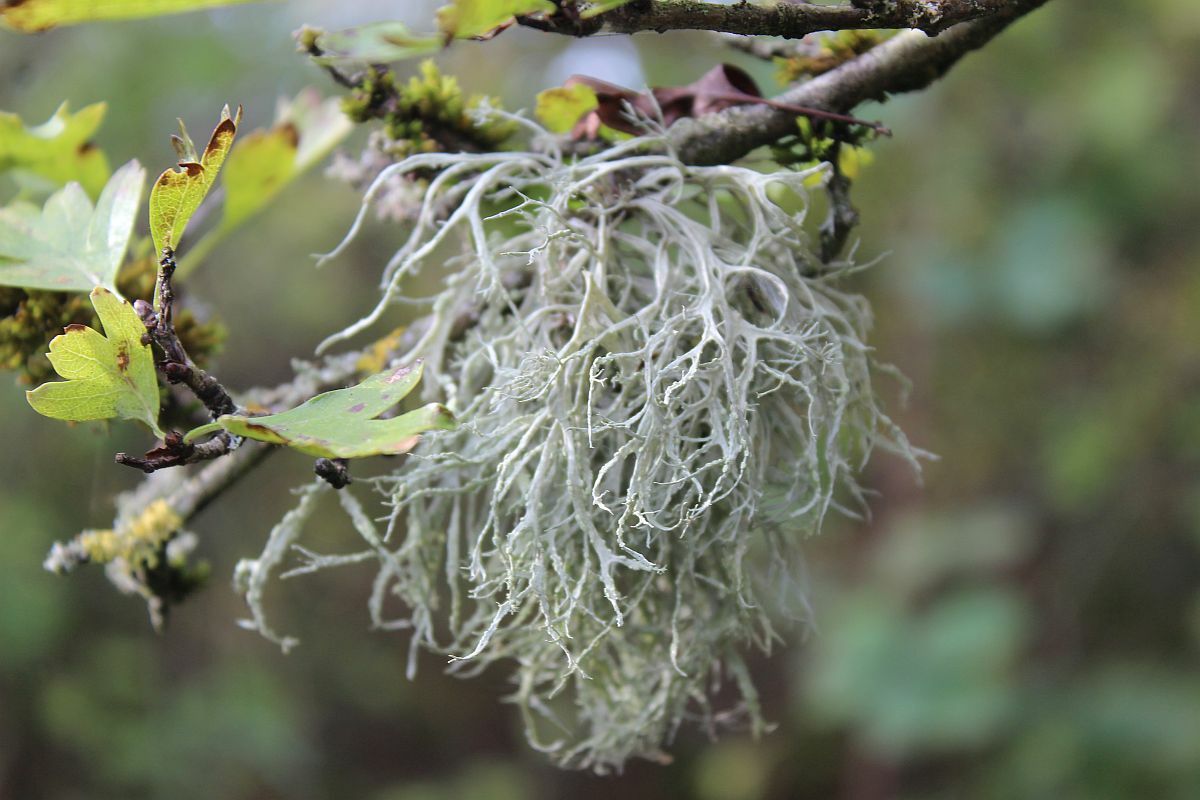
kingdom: Fungi
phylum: Ascomycota
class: Lecanoromycetes
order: Lecanorales
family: Ramalinaceae
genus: Ramalina
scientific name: Ramalina farinacea
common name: Farinose cartilage lichen
